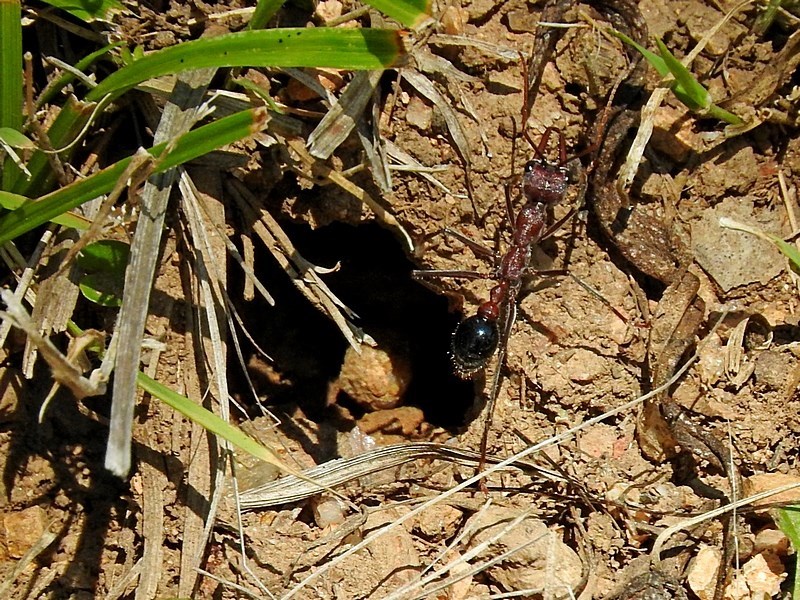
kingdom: Animalia
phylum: Arthropoda
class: Insecta
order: Hymenoptera
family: Formicidae
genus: Myrmecia
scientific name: Myrmecia simillima
